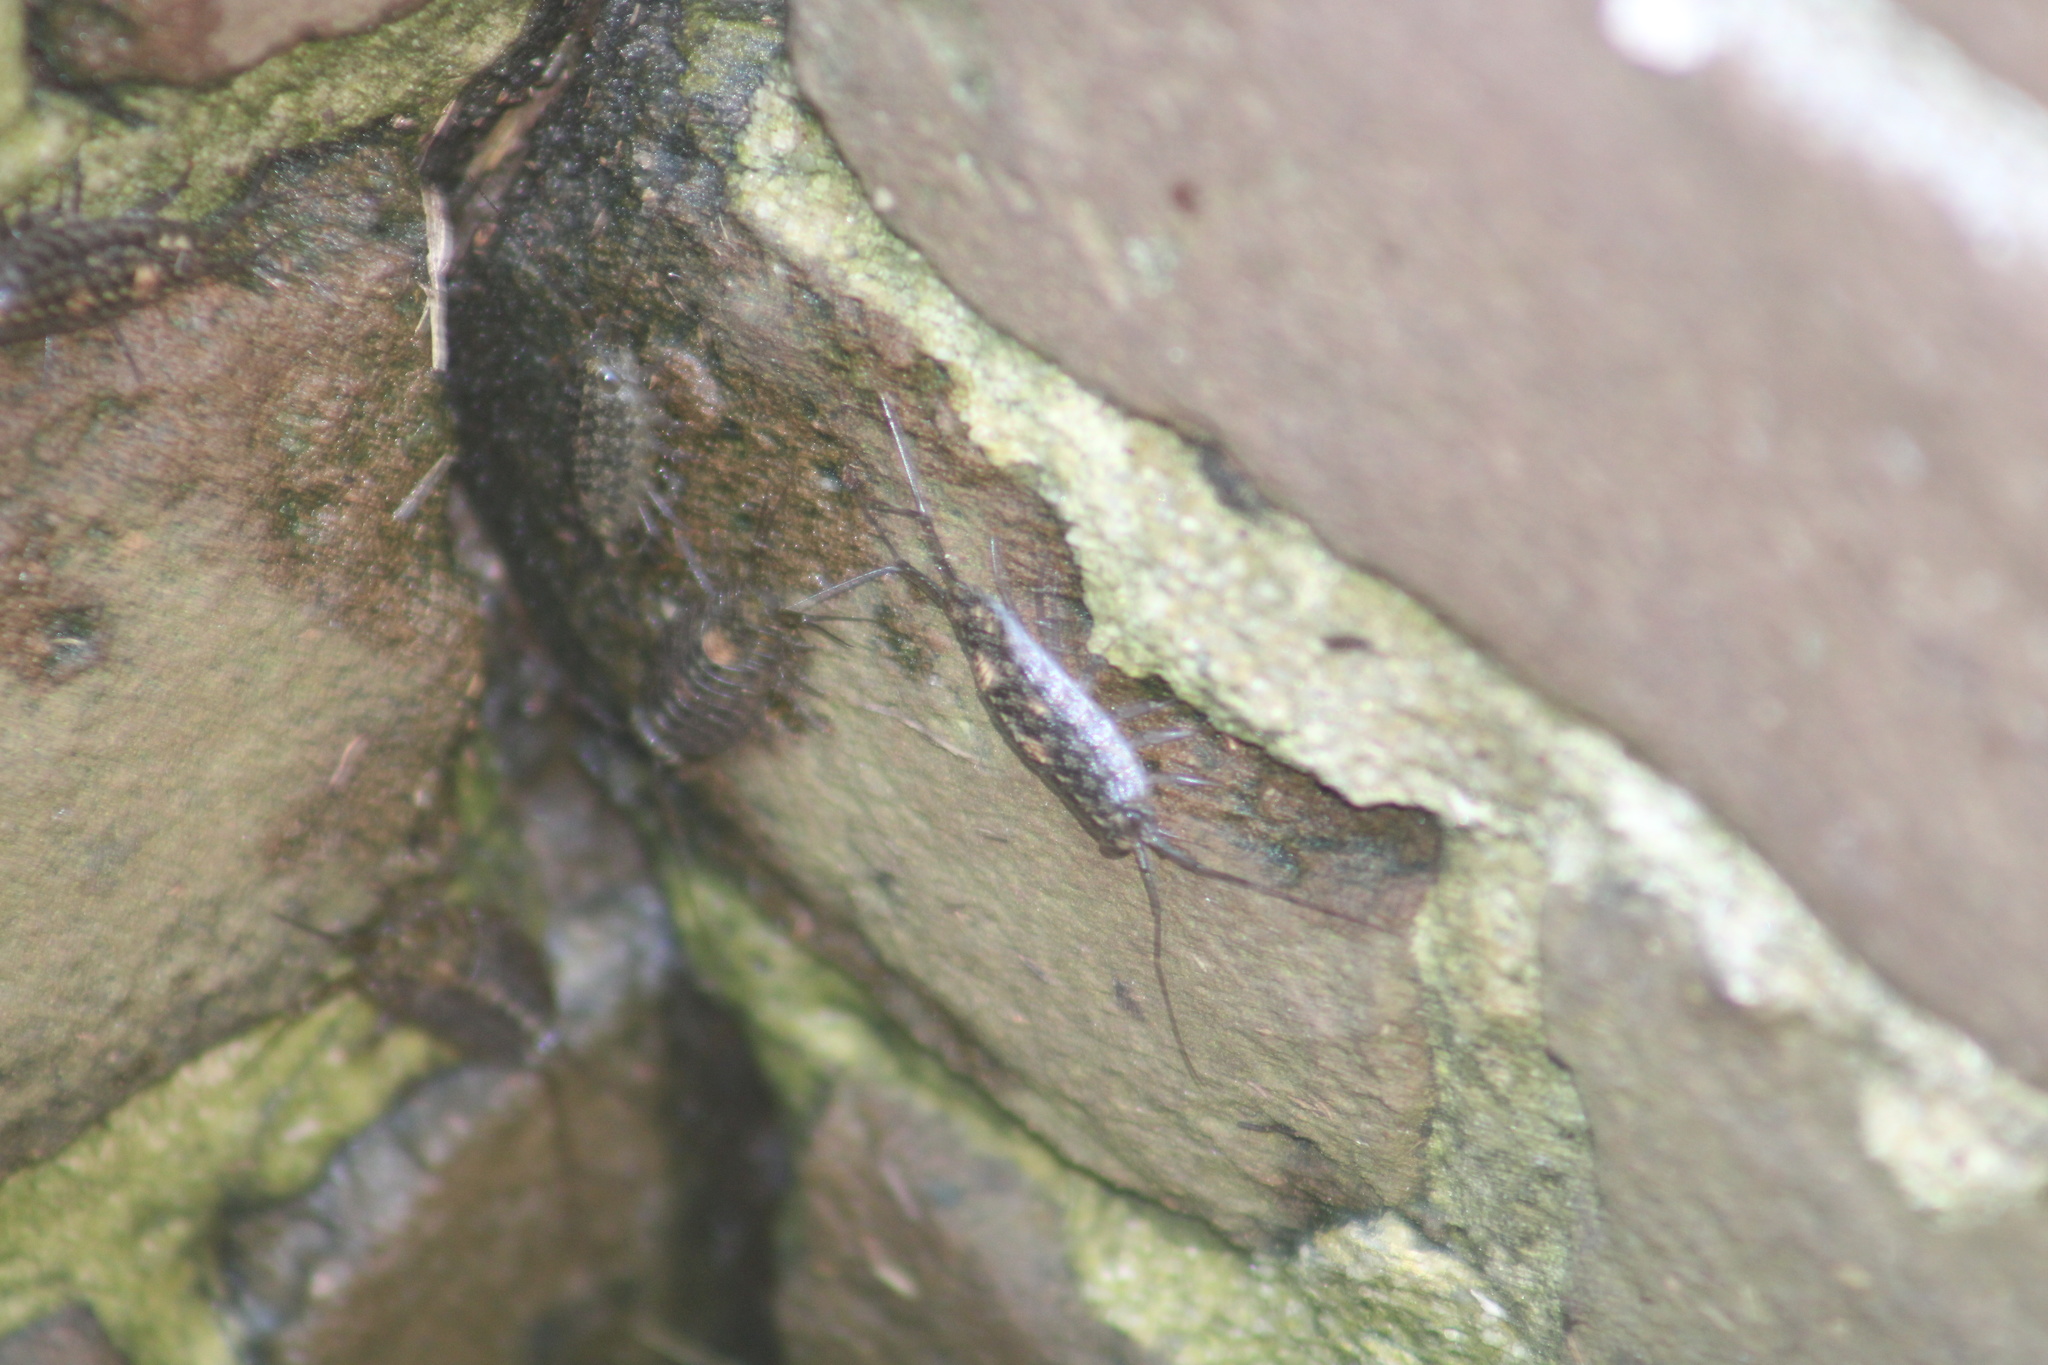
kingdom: Animalia
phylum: Arthropoda
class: Malacostraca
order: Isopoda
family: Ligiidae
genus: Ligia
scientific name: Ligia exotica
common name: Wharf roach
